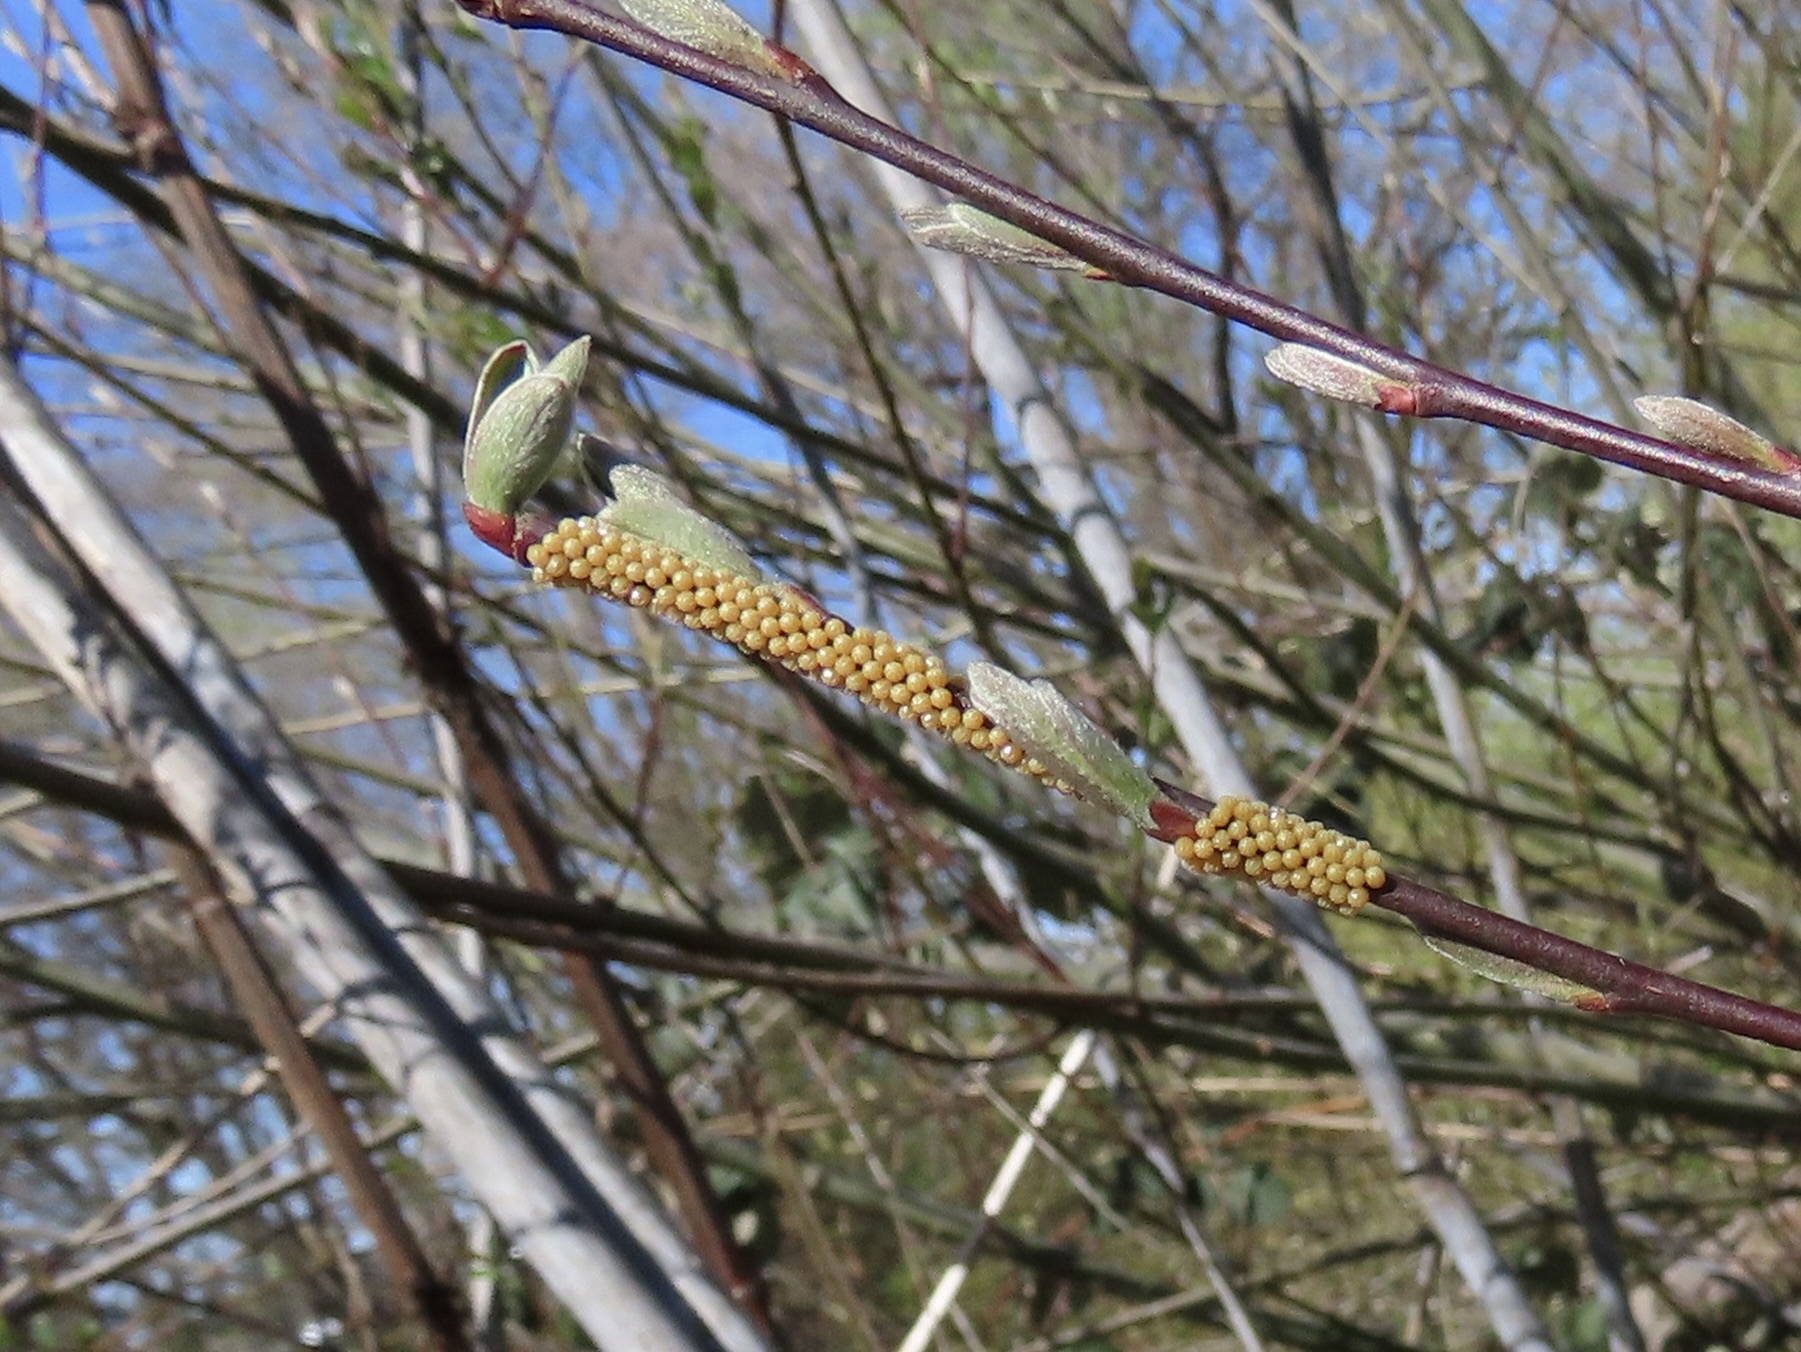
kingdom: Animalia
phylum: Arthropoda
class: Insecta
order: Lepidoptera
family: Nymphalidae
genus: Nymphalis
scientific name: Nymphalis antiopa
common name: Camberwell beauty
